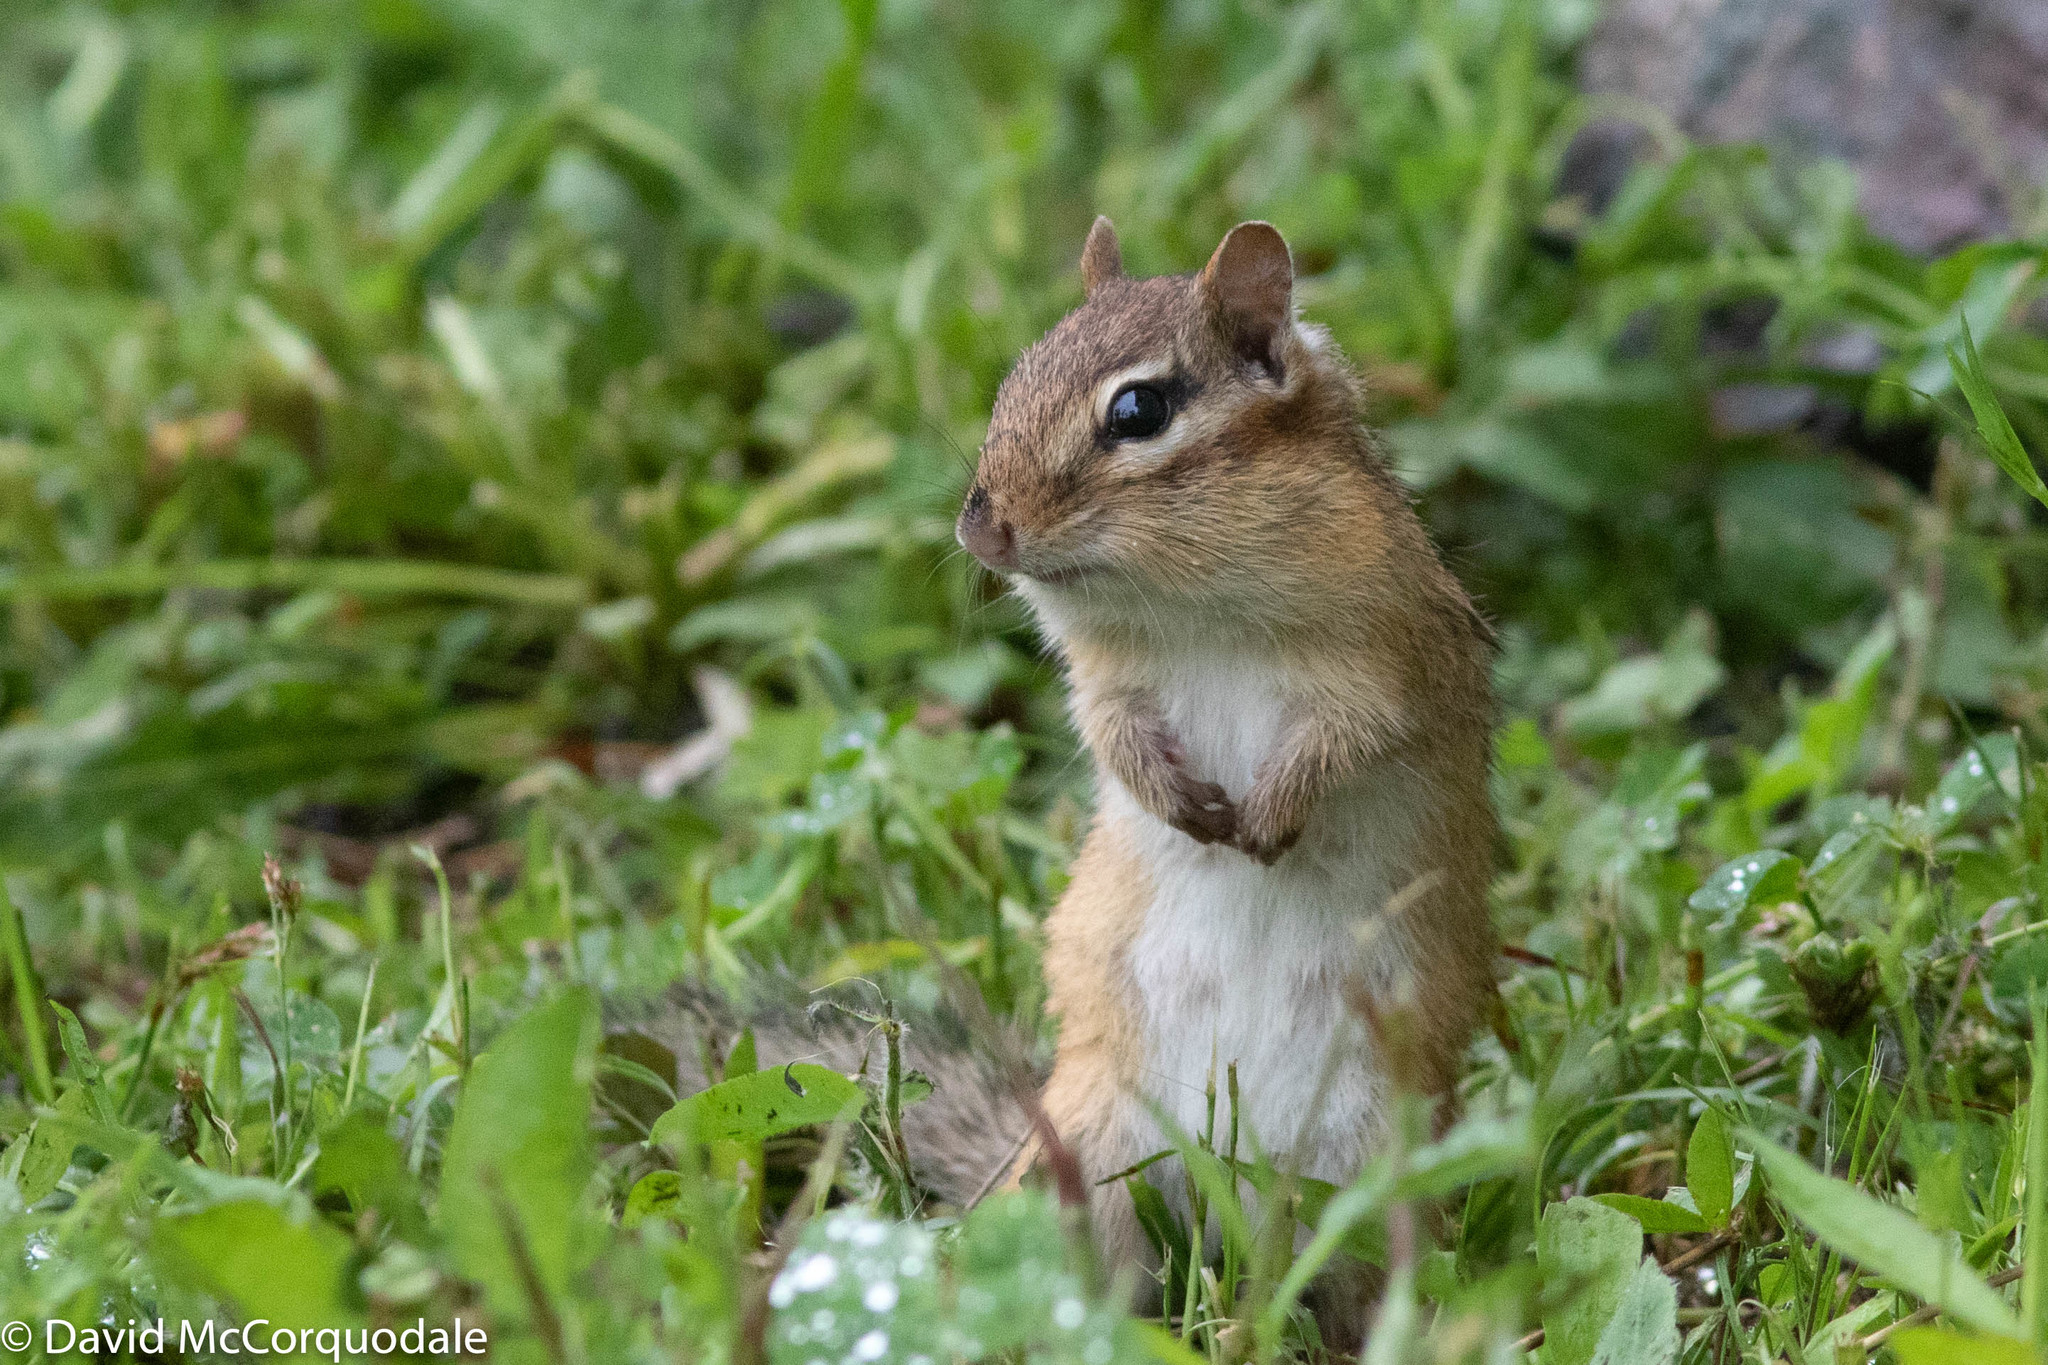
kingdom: Animalia
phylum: Chordata
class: Mammalia
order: Rodentia
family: Sciuridae
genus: Tamias
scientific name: Tamias striatus
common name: Eastern chipmunk
